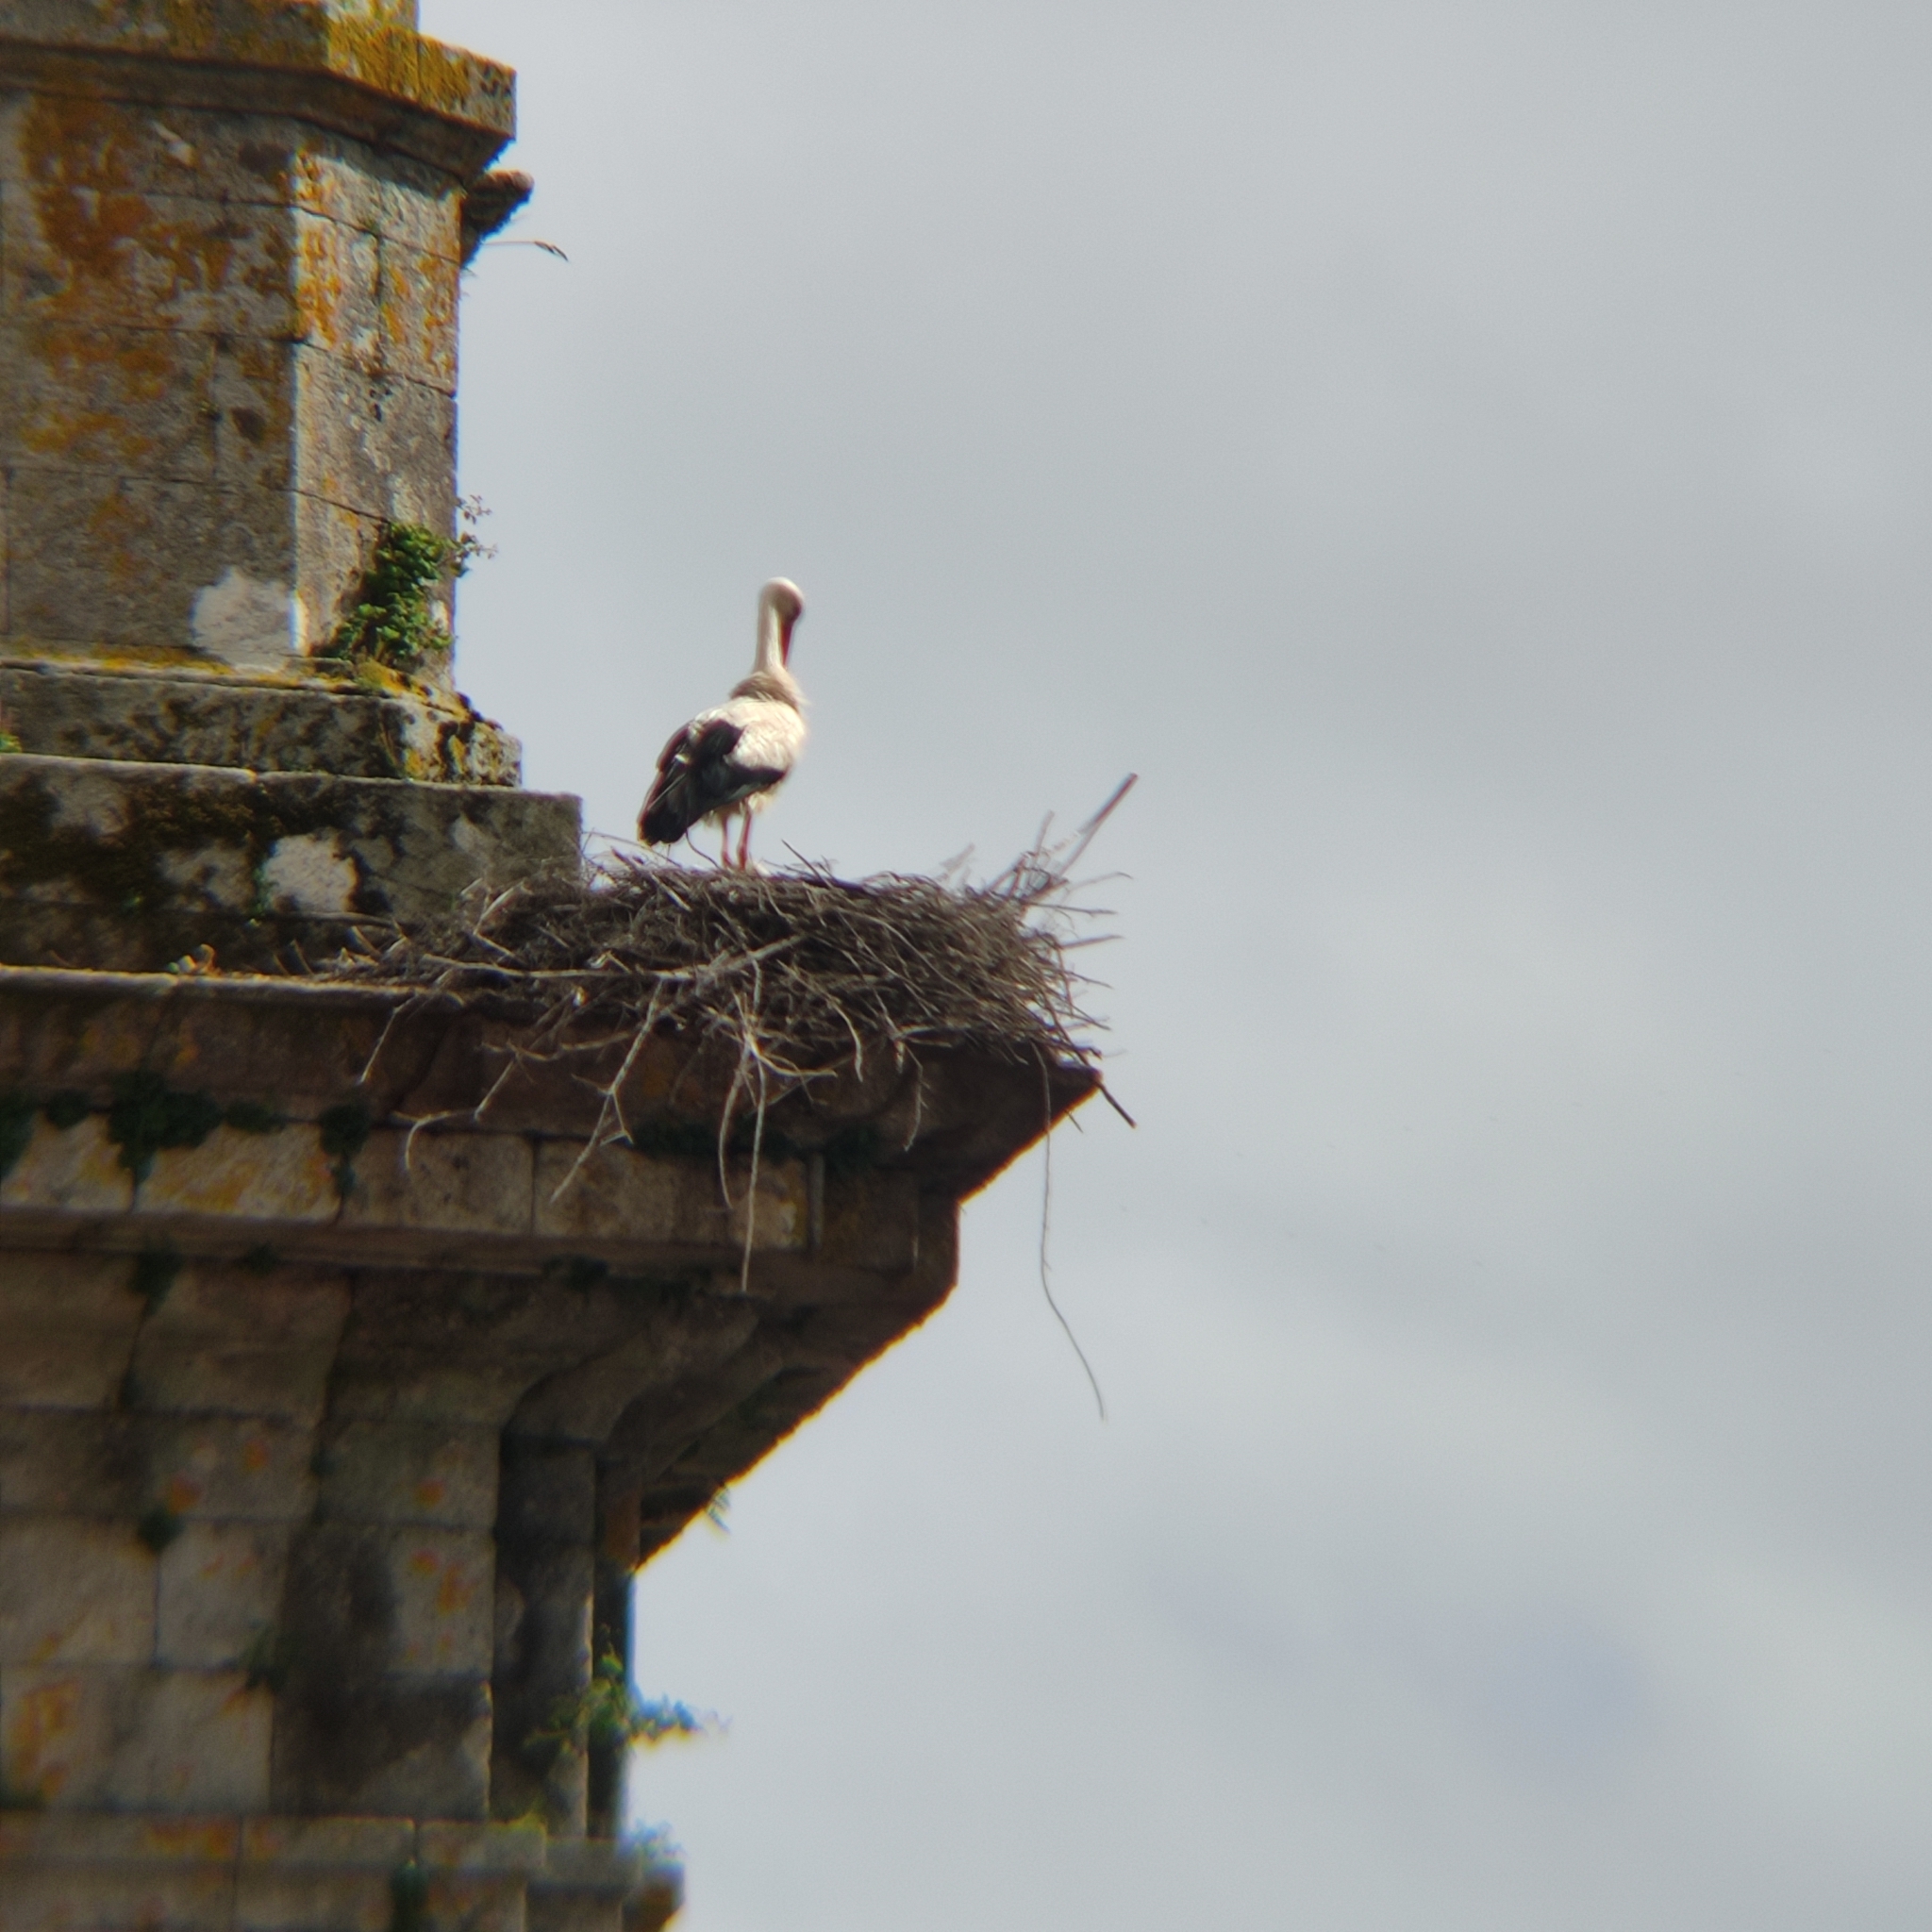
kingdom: Animalia
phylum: Chordata
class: Aves
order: Ciconiiformes
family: Ciconiidae
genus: Ciconia
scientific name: Ciconia ciconia
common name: White stork
